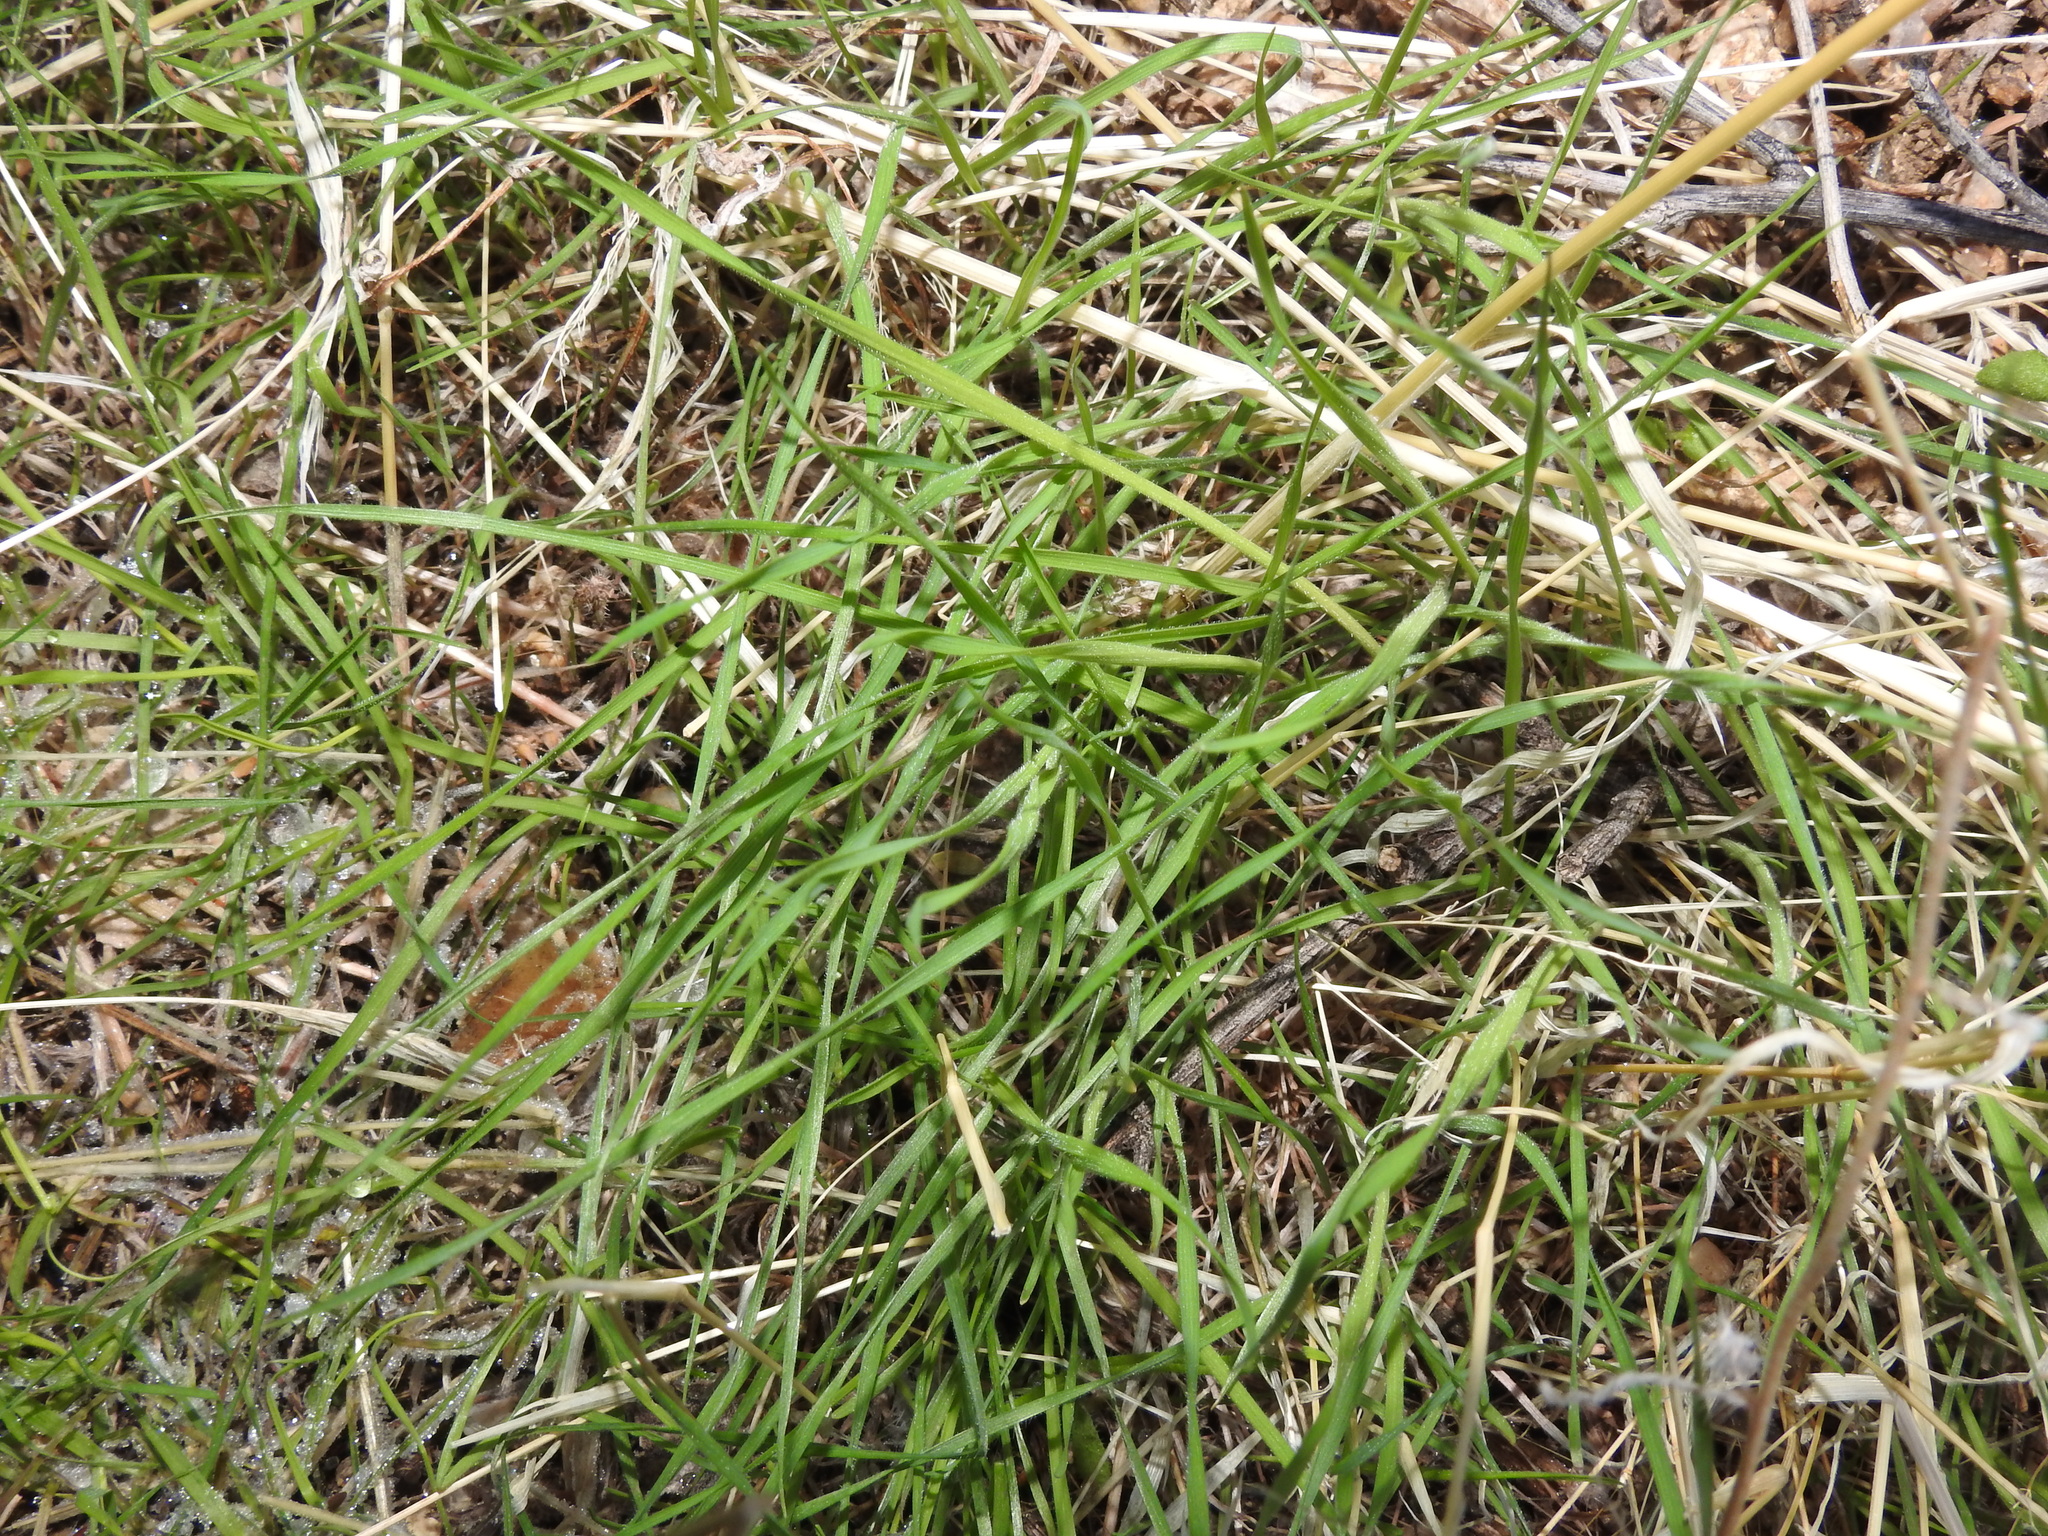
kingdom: Plantae
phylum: Tracheophyta
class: Liliopsida
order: Poales
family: Poaceae
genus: Bromus
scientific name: Bromus rubens
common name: Red brome
